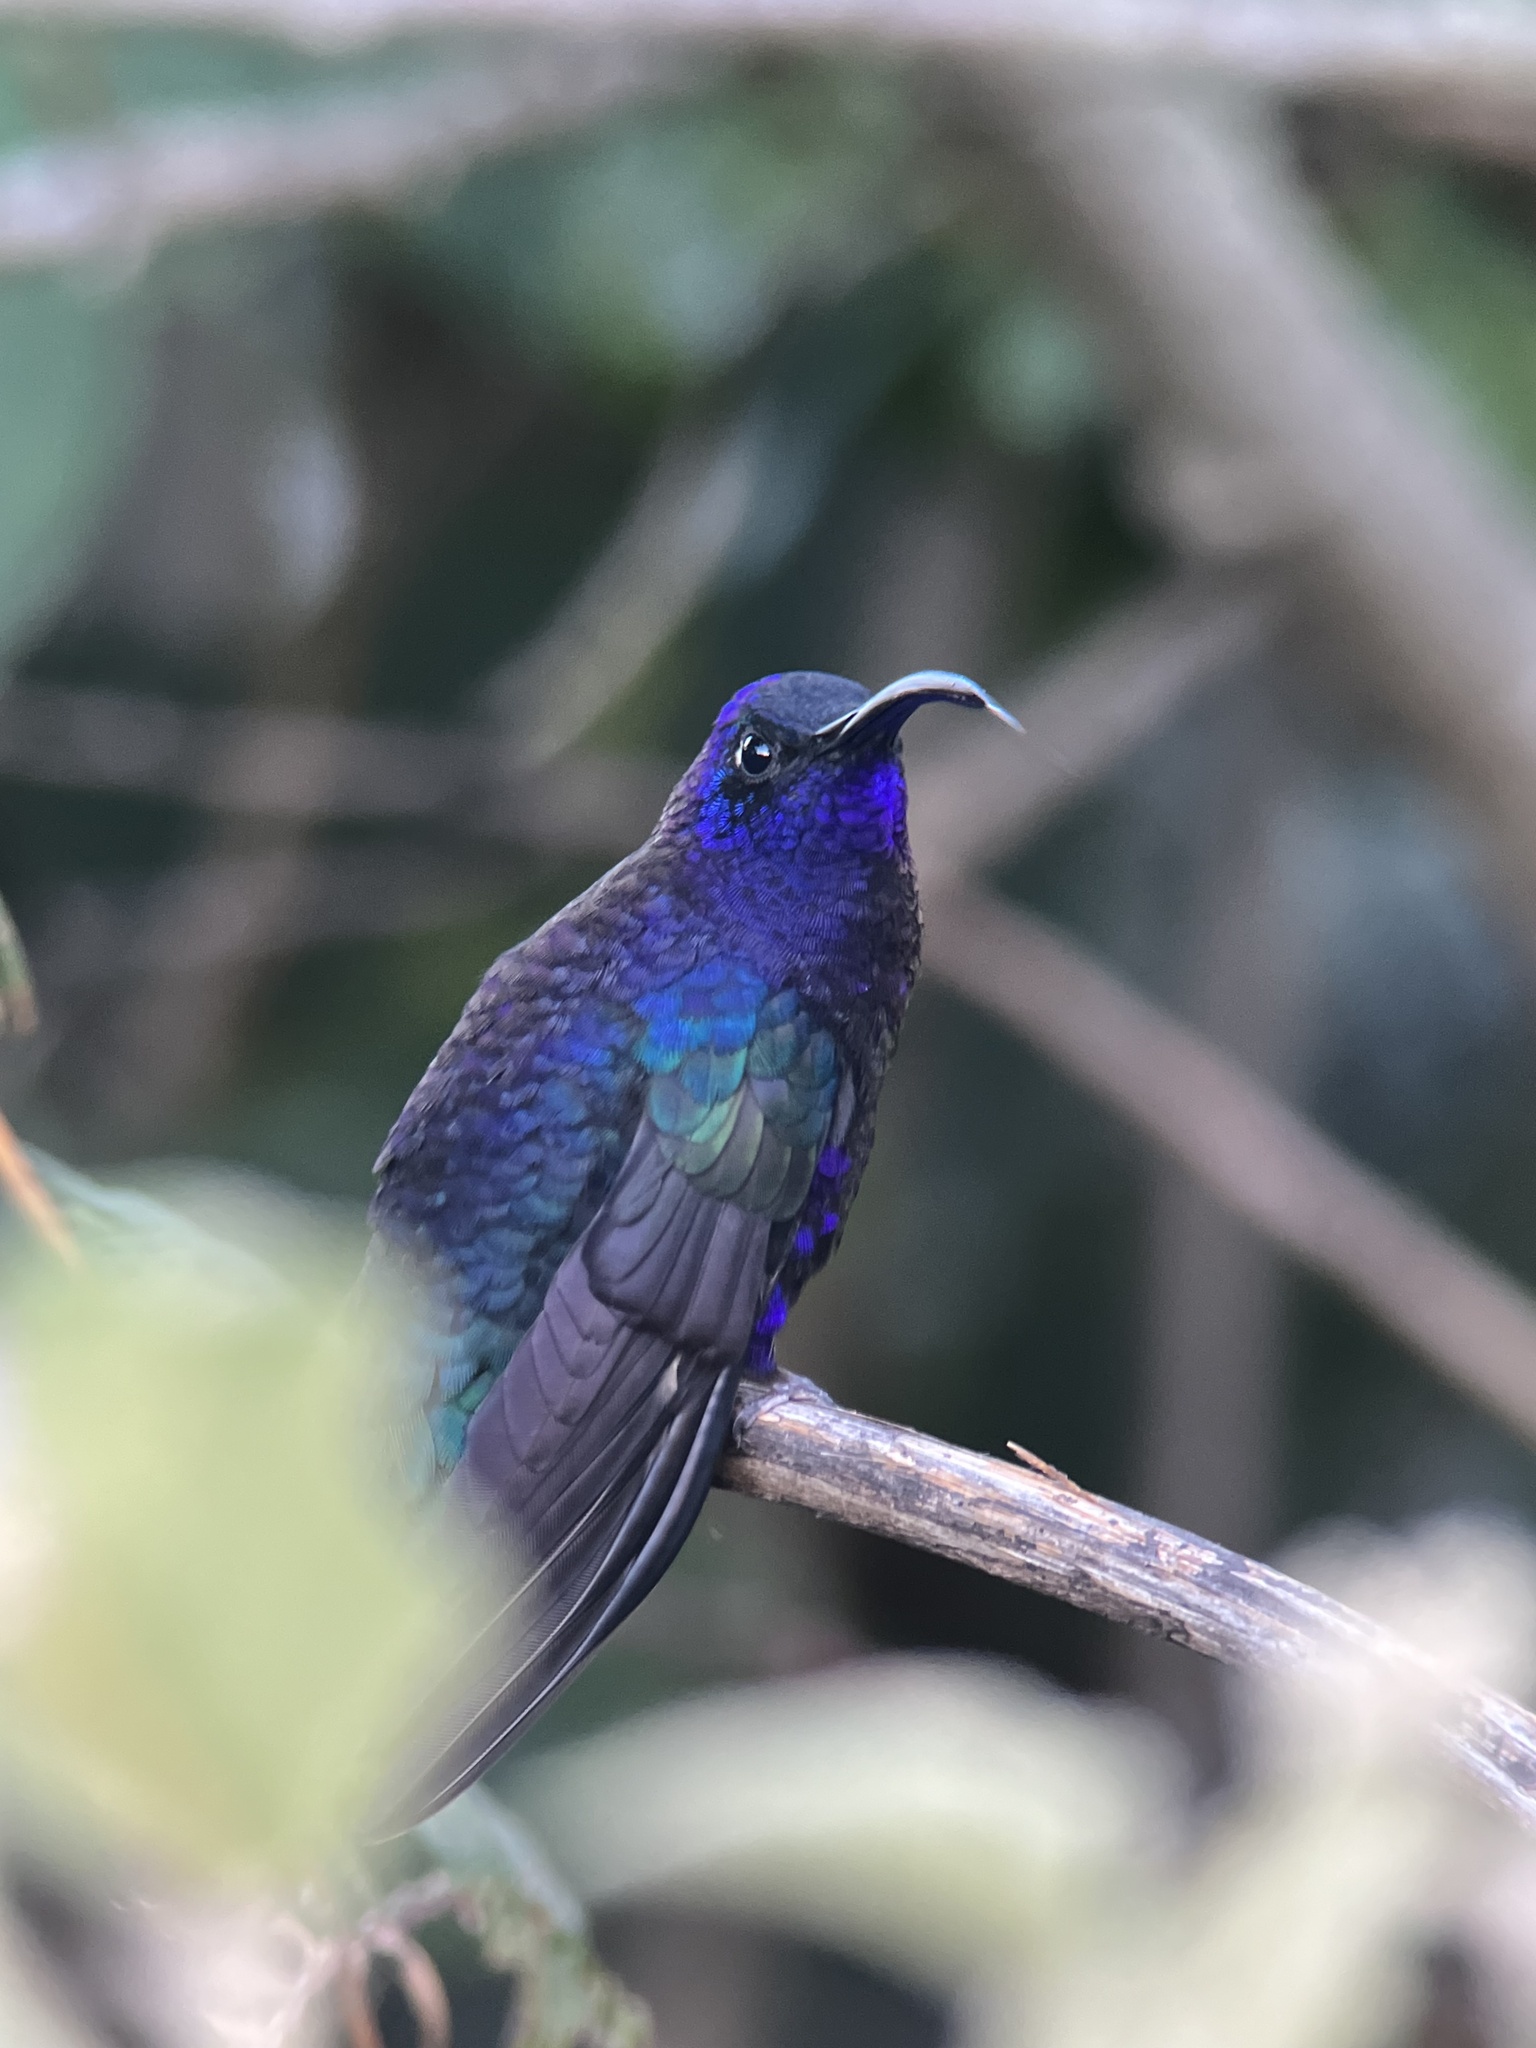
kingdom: Animalia
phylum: Chordata
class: Aves
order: Apodiformes
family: Trochilidae
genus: Campylopterus
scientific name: Campylopterus hemileucurus
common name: Violet sabrewing
